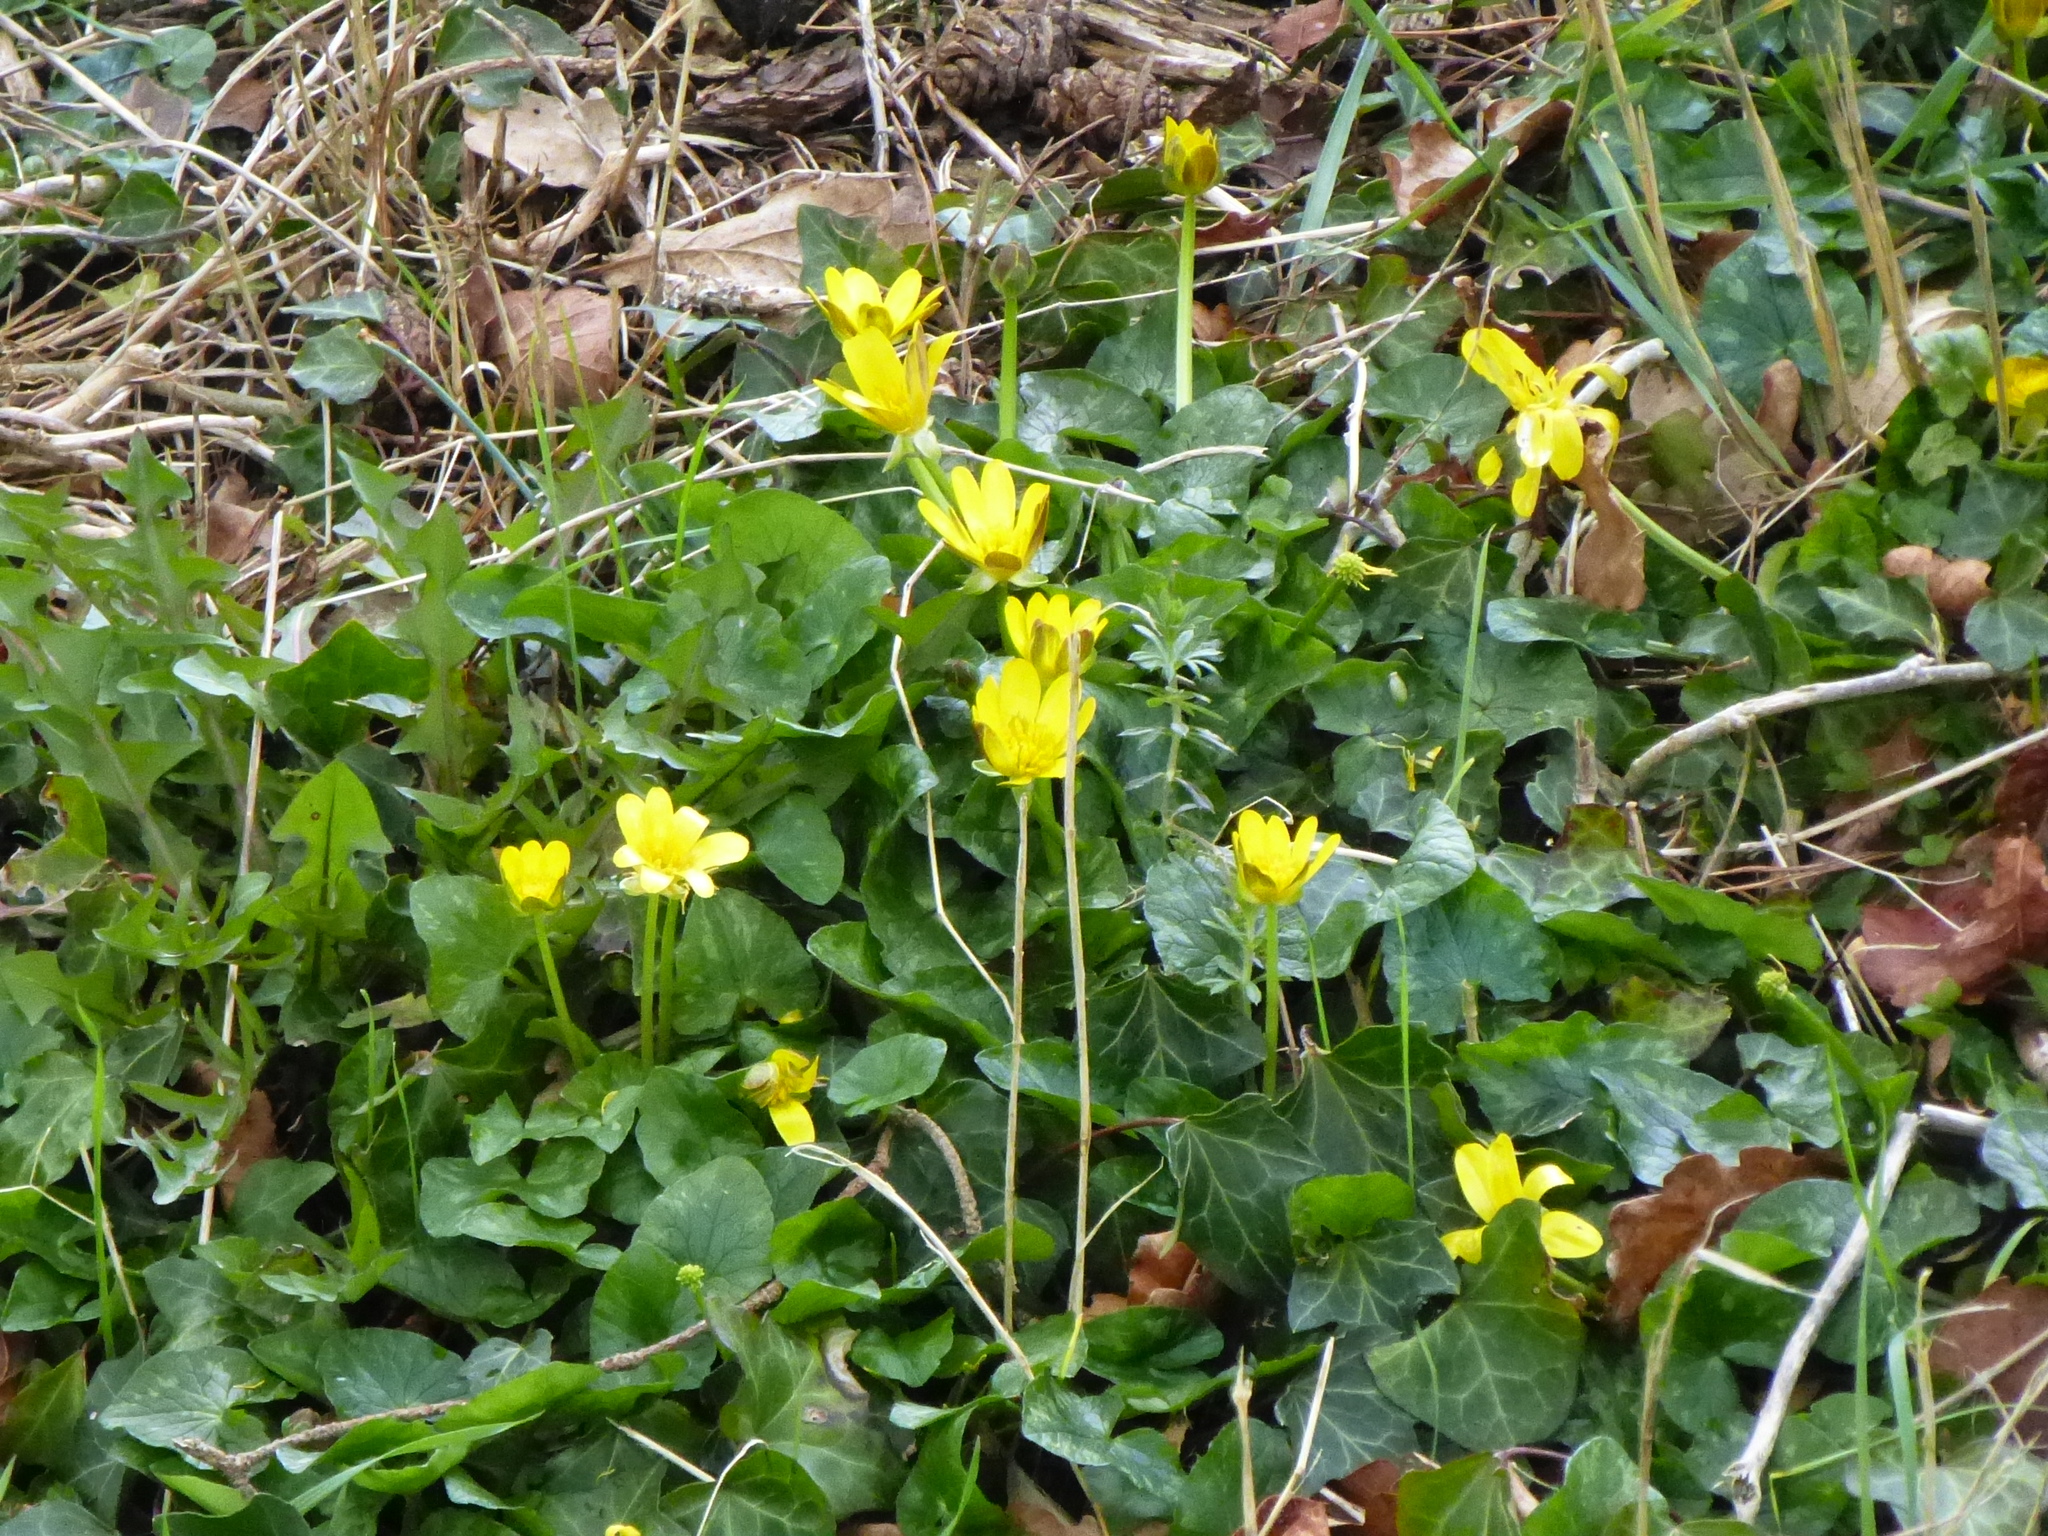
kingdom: Plantae
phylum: Tracheophyta
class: Magnoliopsida
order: Ranunculales
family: Ranunculaceae
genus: Ficaria
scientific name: Ficaria verna
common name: Lesser celandine
